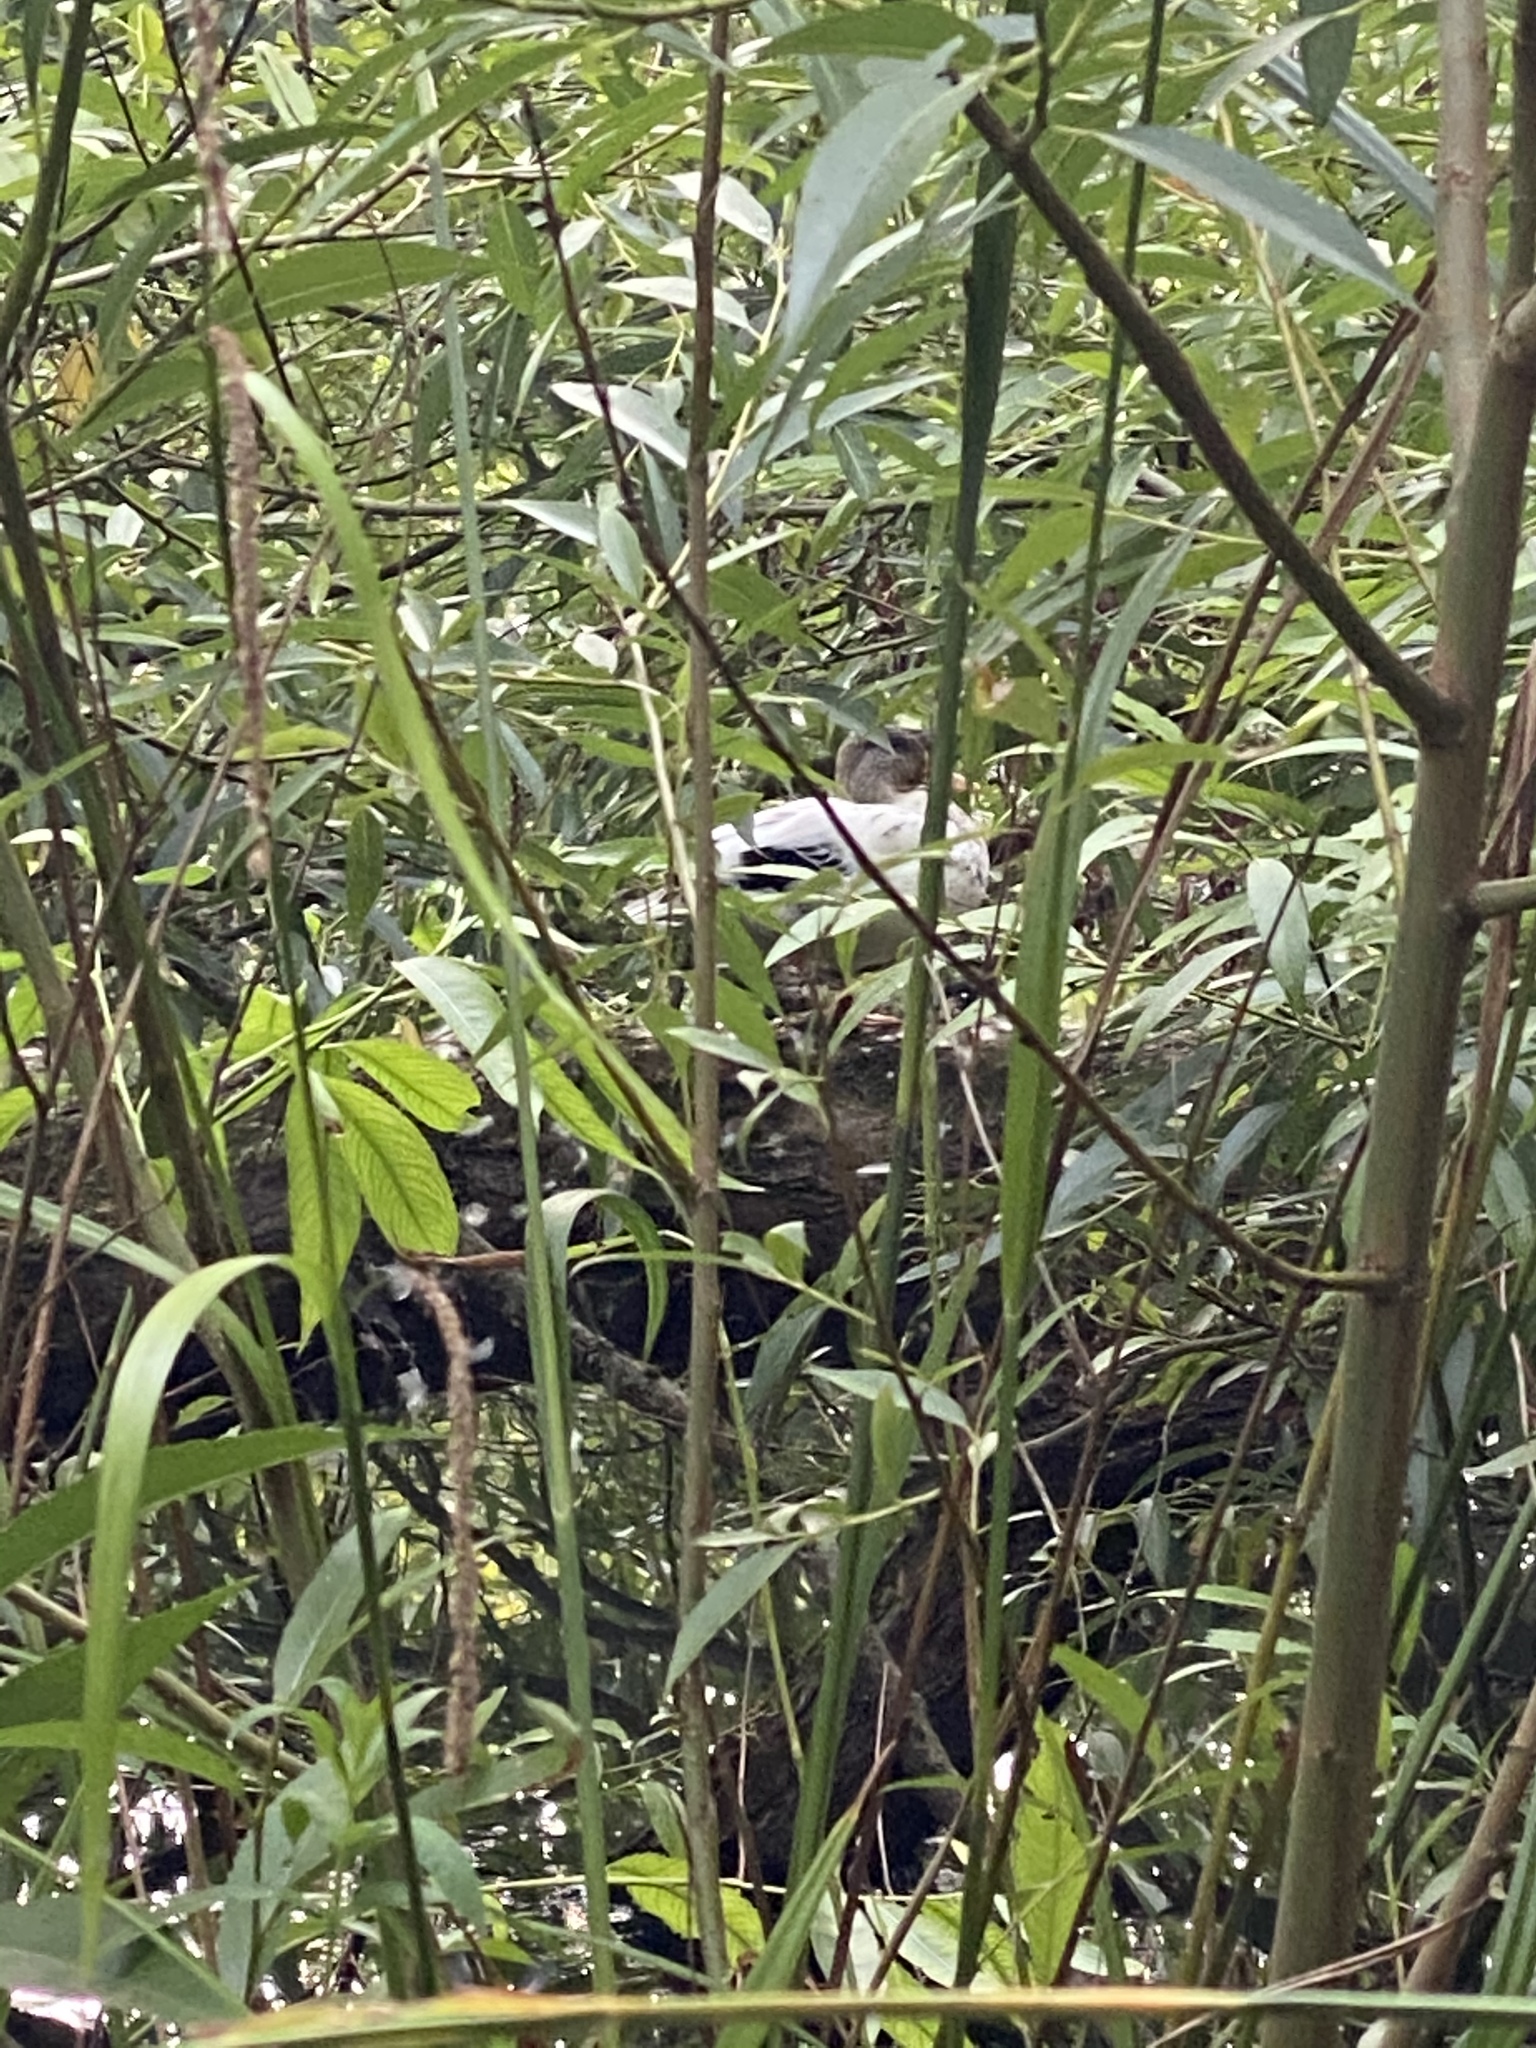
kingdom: Animalia
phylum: Chordata
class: Aves
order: Anseriformes
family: Anatidae
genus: Anas
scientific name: Anas platyrhynchos
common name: Mallard
